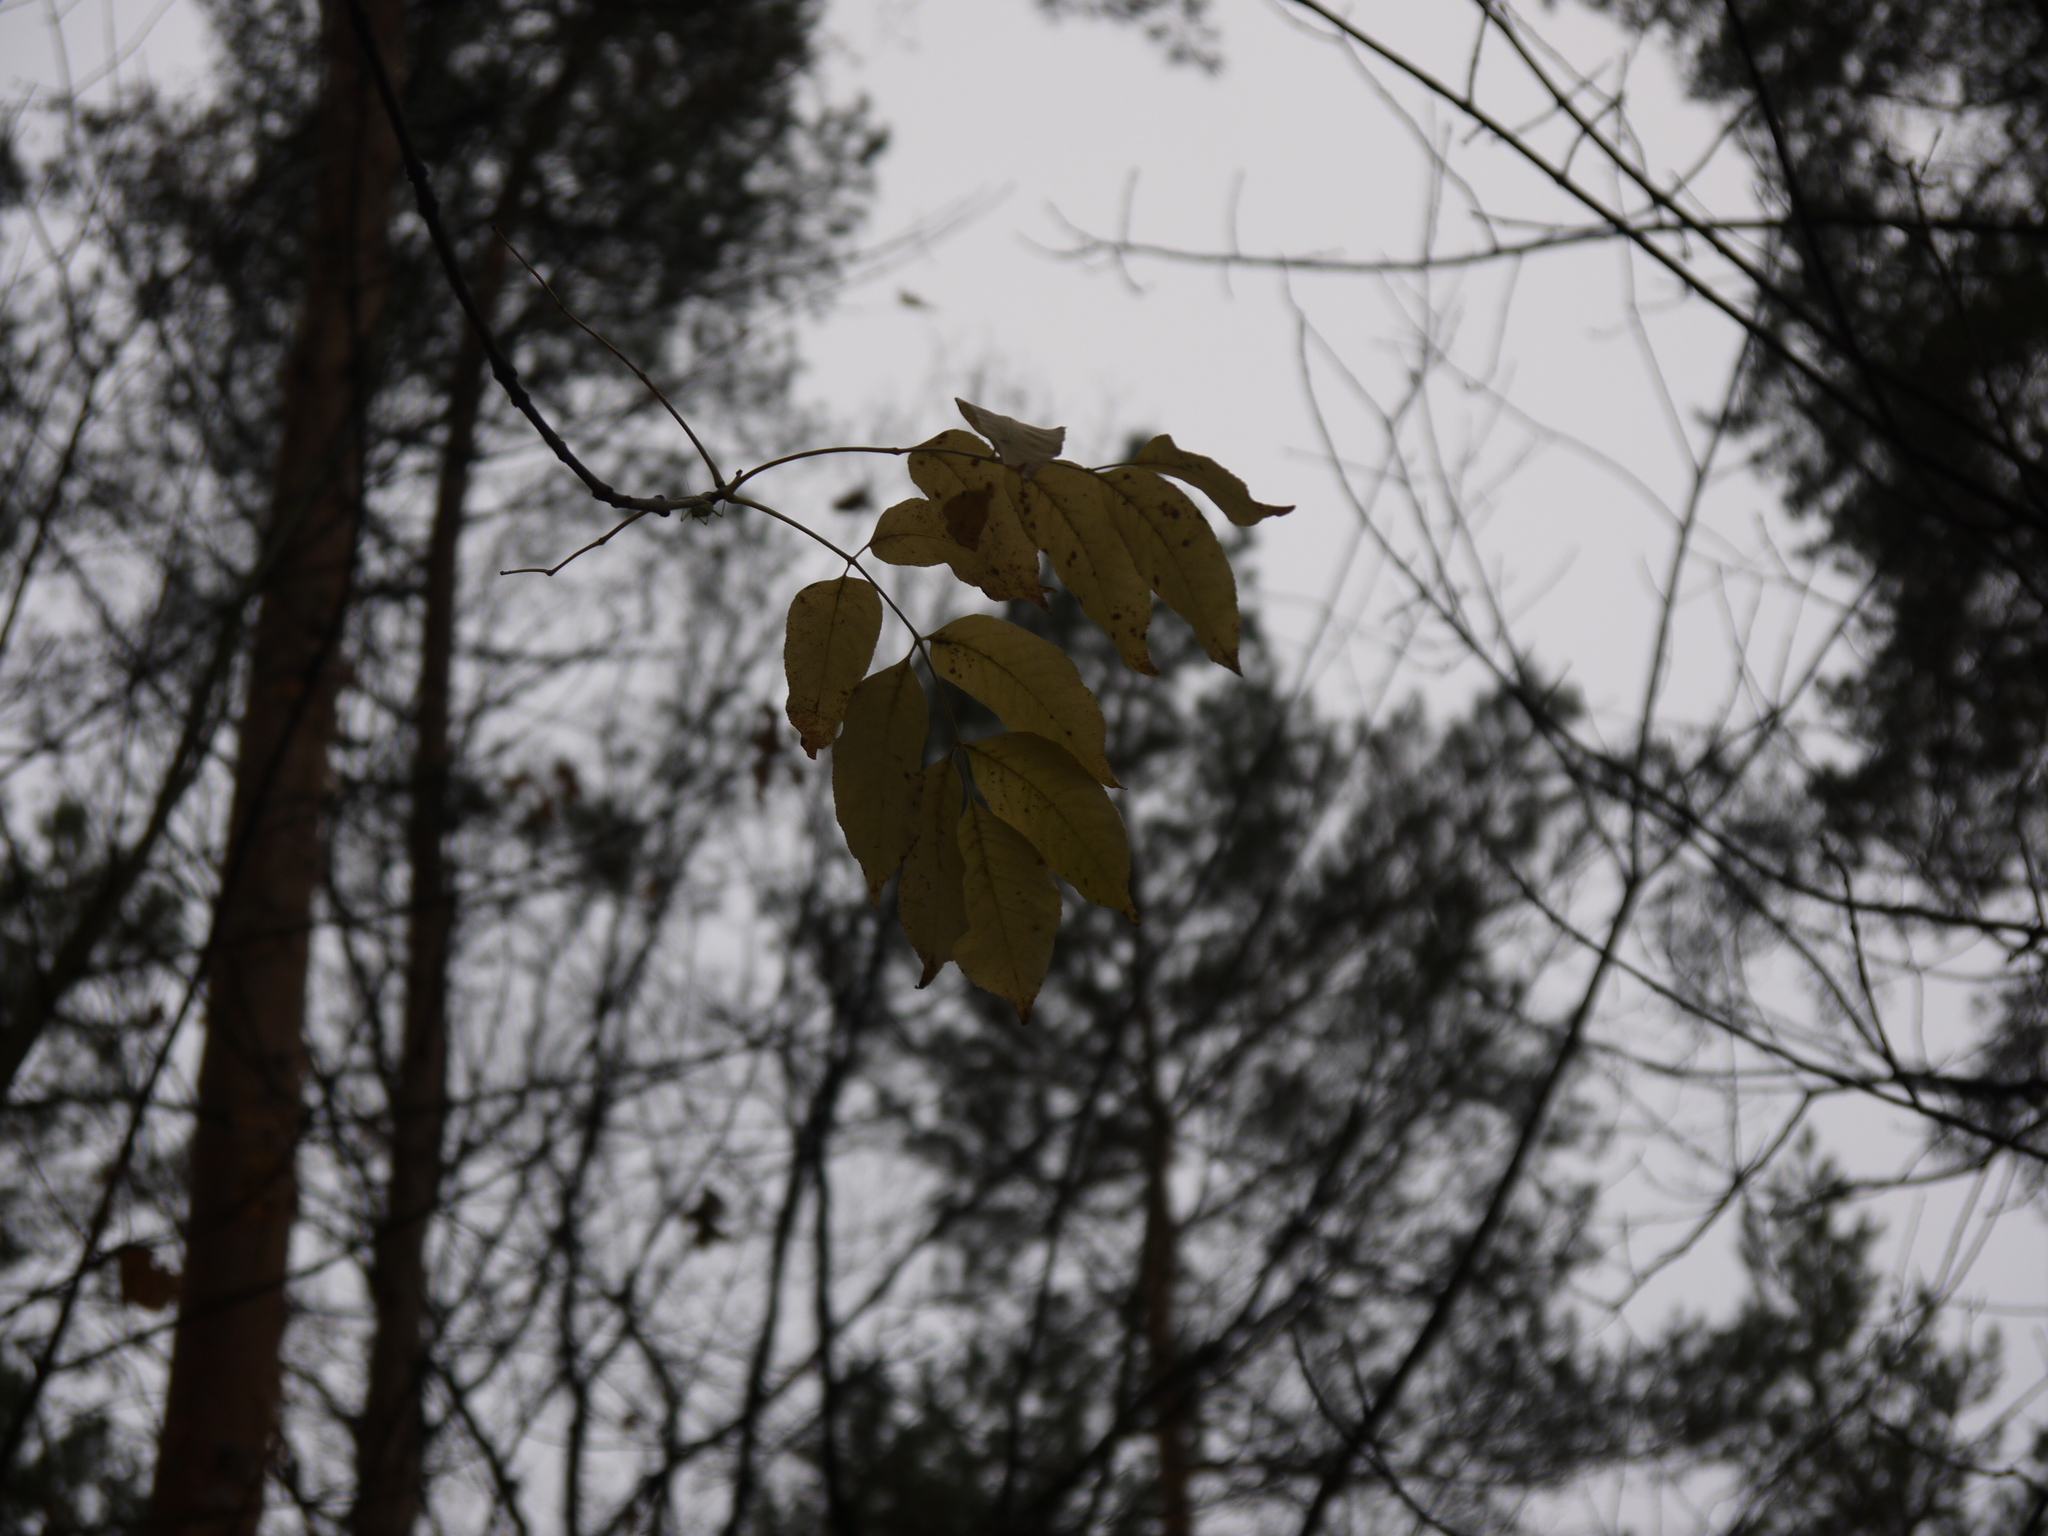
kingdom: Plantae
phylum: Tracheophyta
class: Magnoliopsida
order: Lamiales
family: Oleaceae
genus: Fraxinus
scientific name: Fraxinus excelsior
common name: European ash
